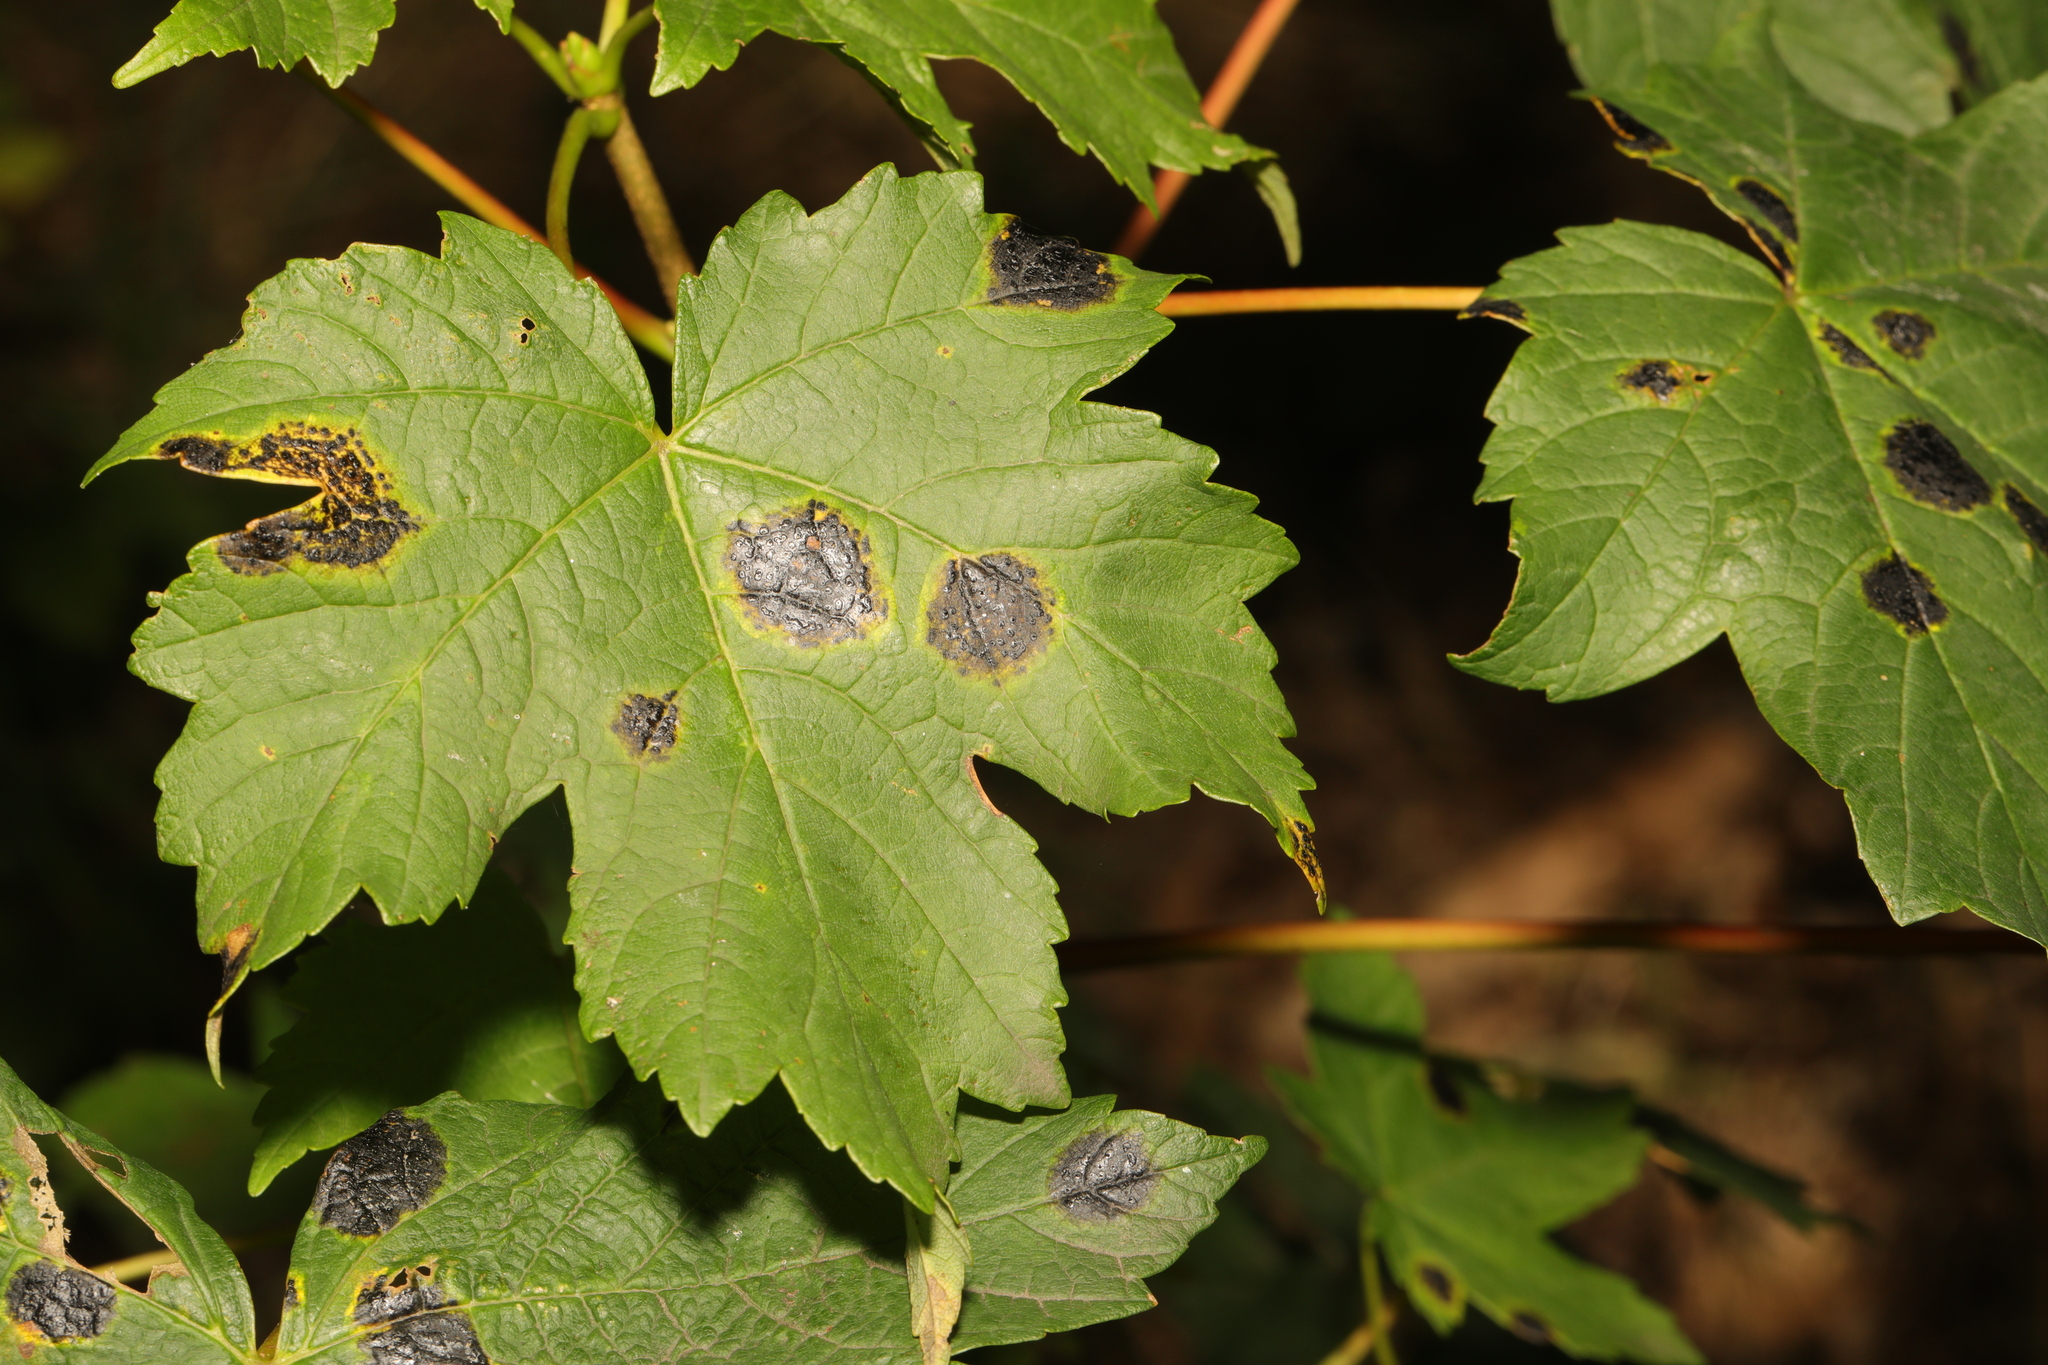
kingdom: Plantae
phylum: Tracheophyta
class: Magnoliopsida
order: Sapindales
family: Sapindaceae
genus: Acer
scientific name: Acer pseudoplatanus
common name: Sycamore
